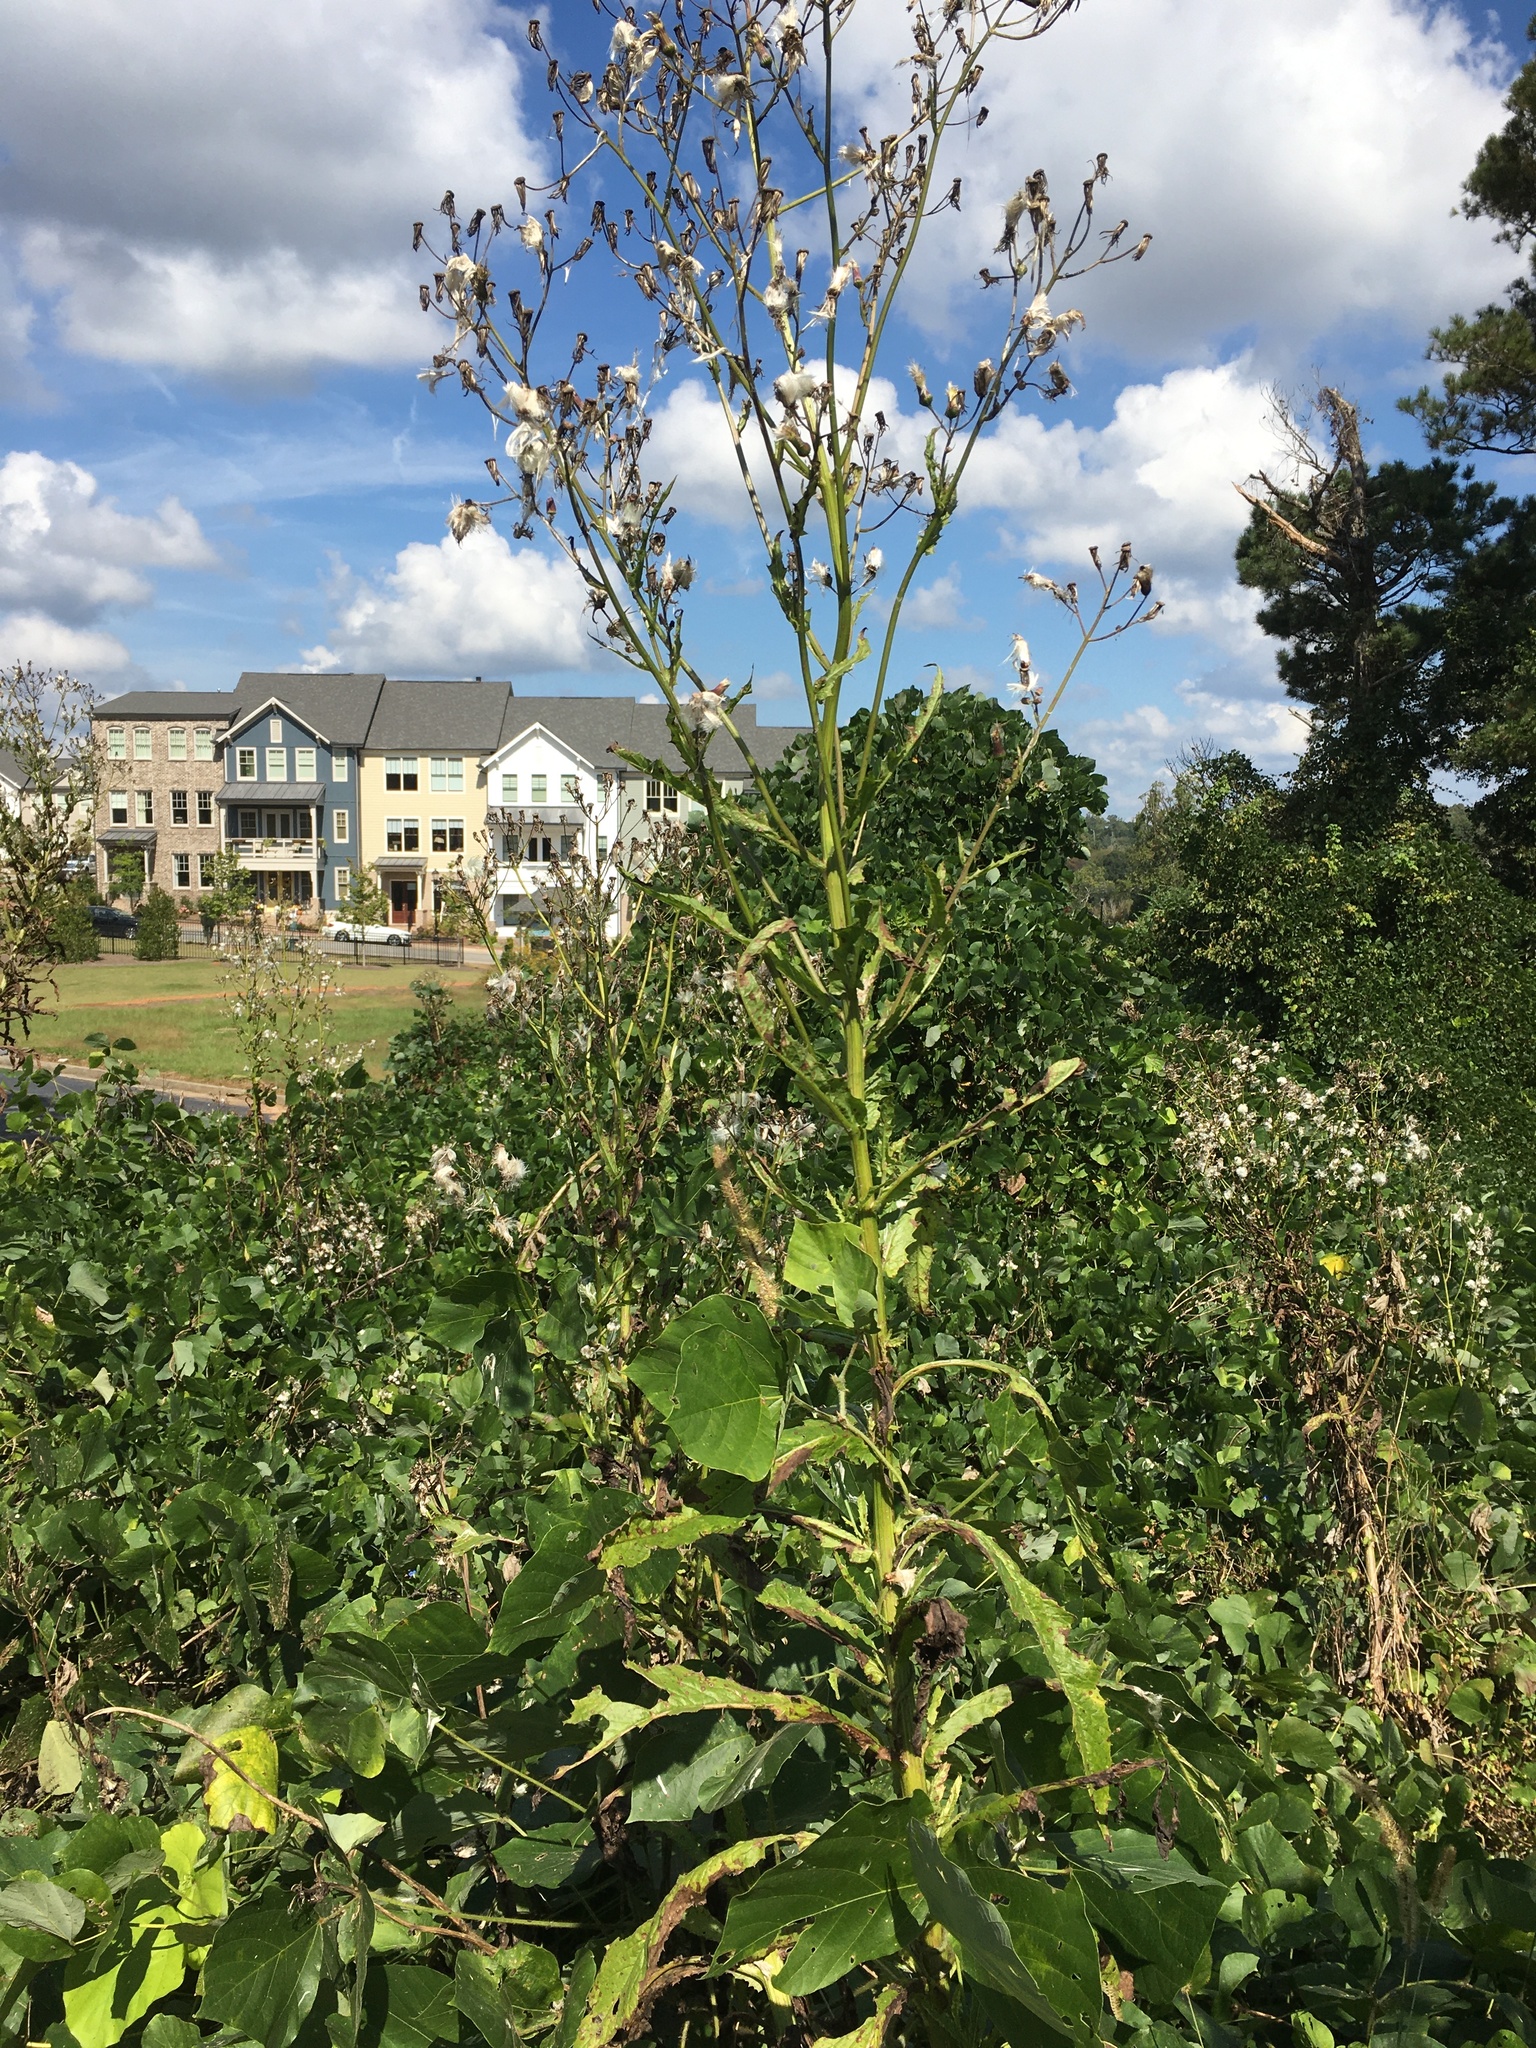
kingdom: Plantae
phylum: Tracheophyta
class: Magnoliopsida
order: Asterales
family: Asteraceae
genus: Erechtites
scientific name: Erechtites hieraciifolius
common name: American burnweed
